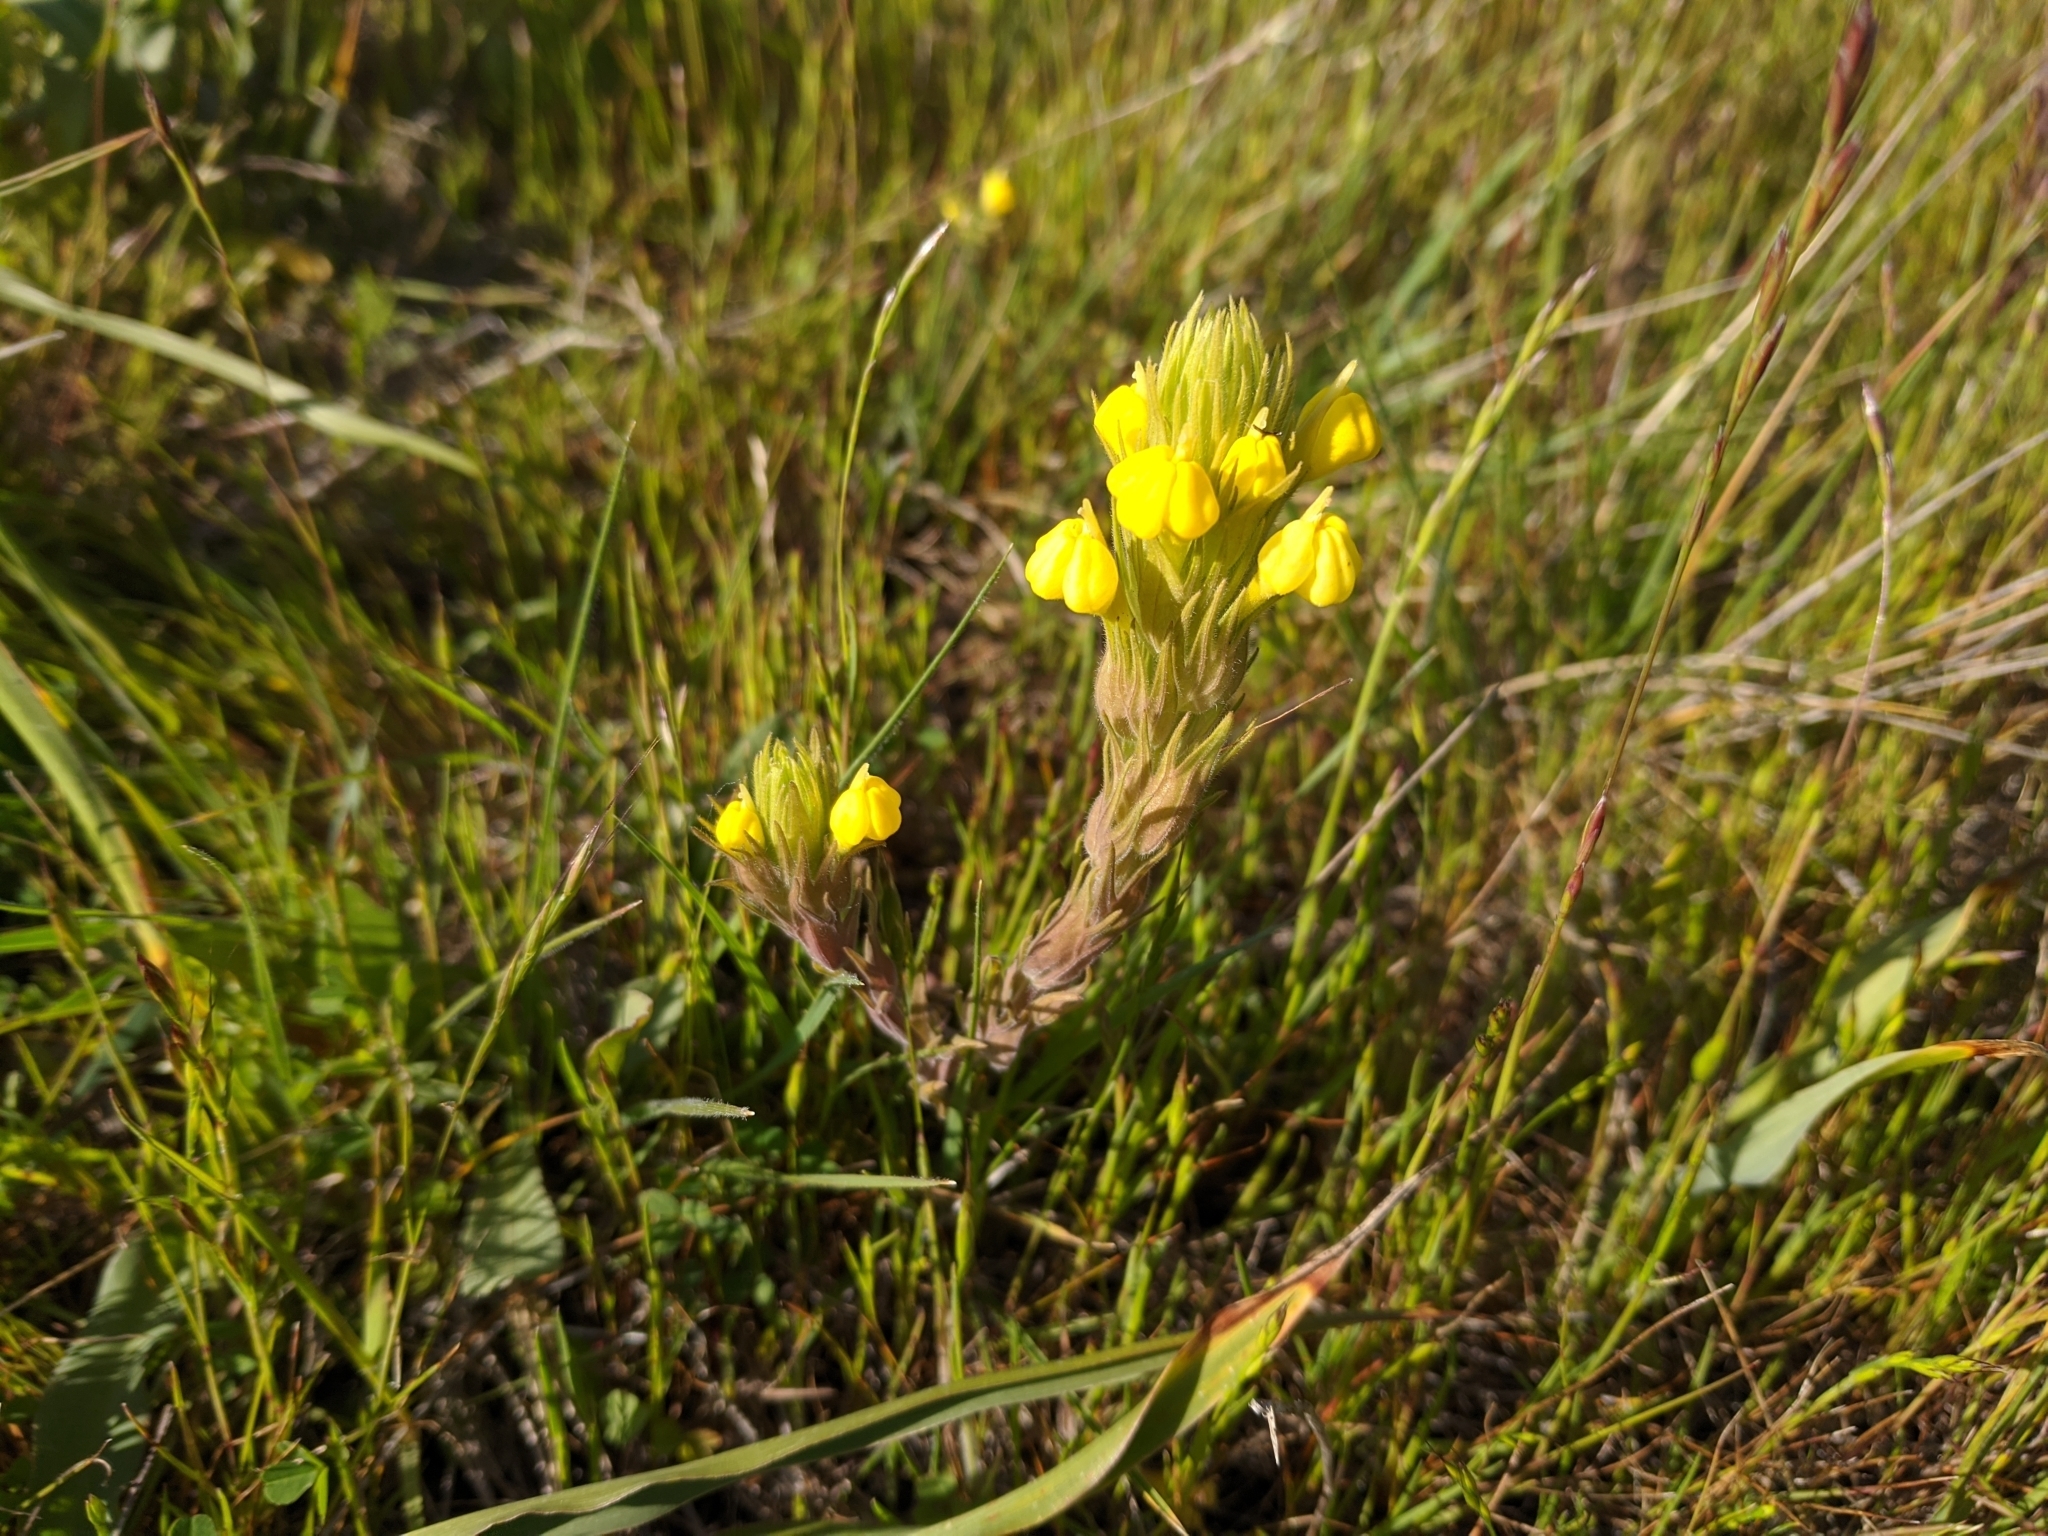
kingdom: Plantae
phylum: Tracheophyta
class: Magnoliopsida
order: Lamiales
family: Orobanchaceae
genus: Castilleja
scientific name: Castilleja rubicundula
